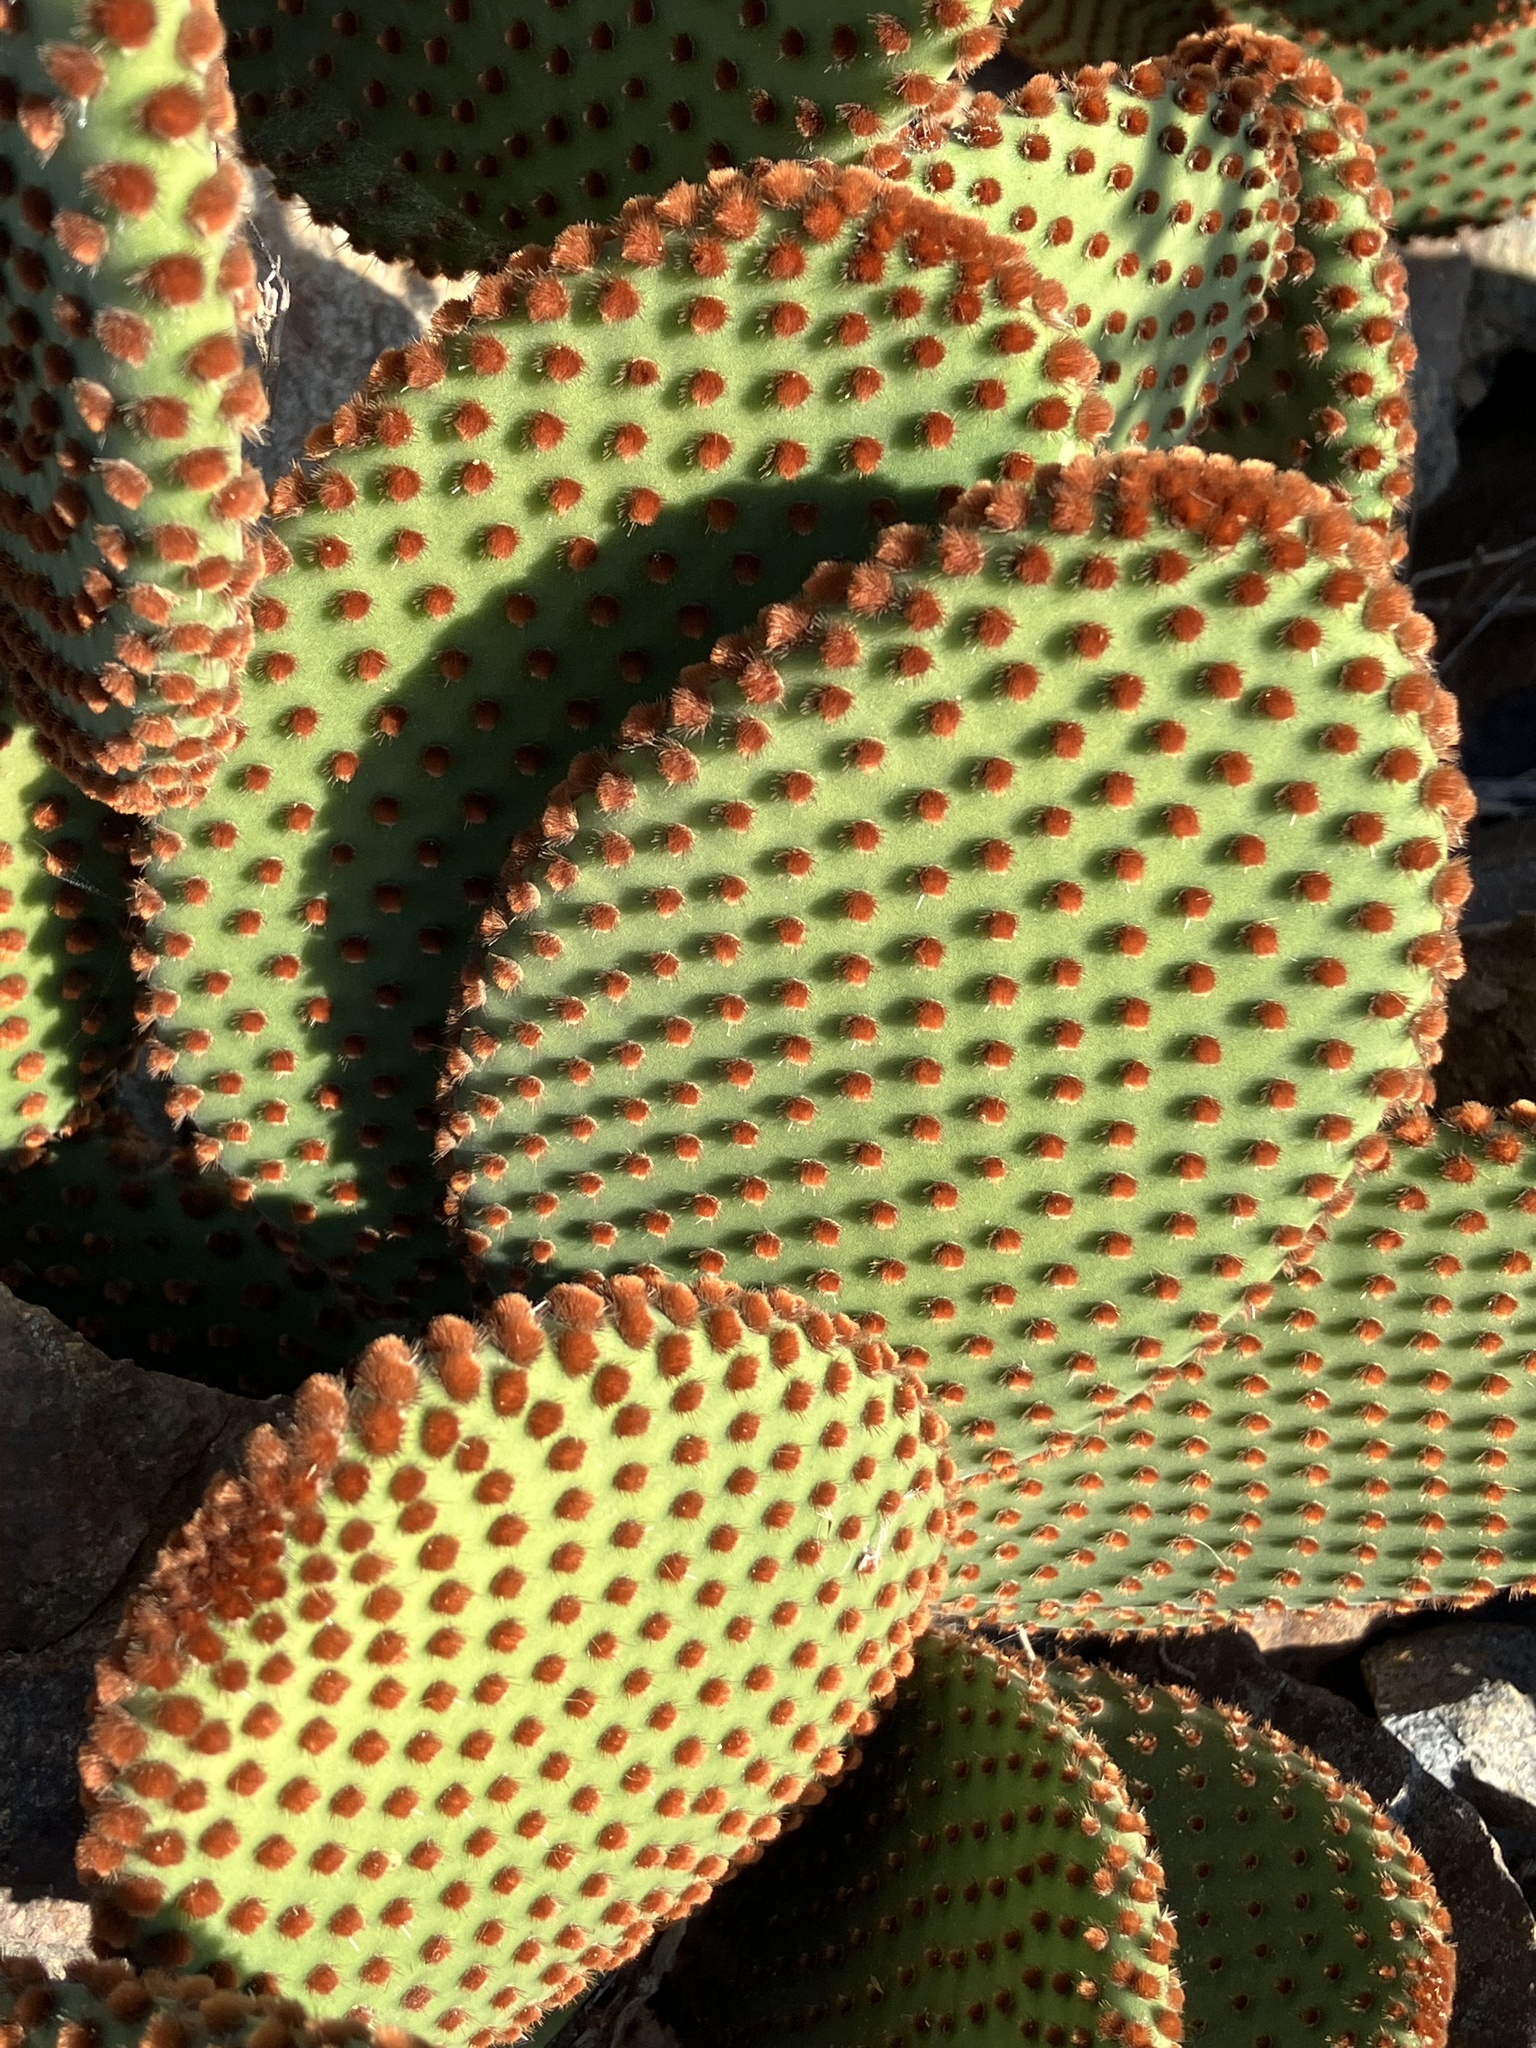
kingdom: Plantae
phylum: Tracheophyta
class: Magnoliopsida
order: Caryophyllales
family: Cactaceae
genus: Opuntia
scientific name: Opuntia microdasys
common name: Angel's-wings
